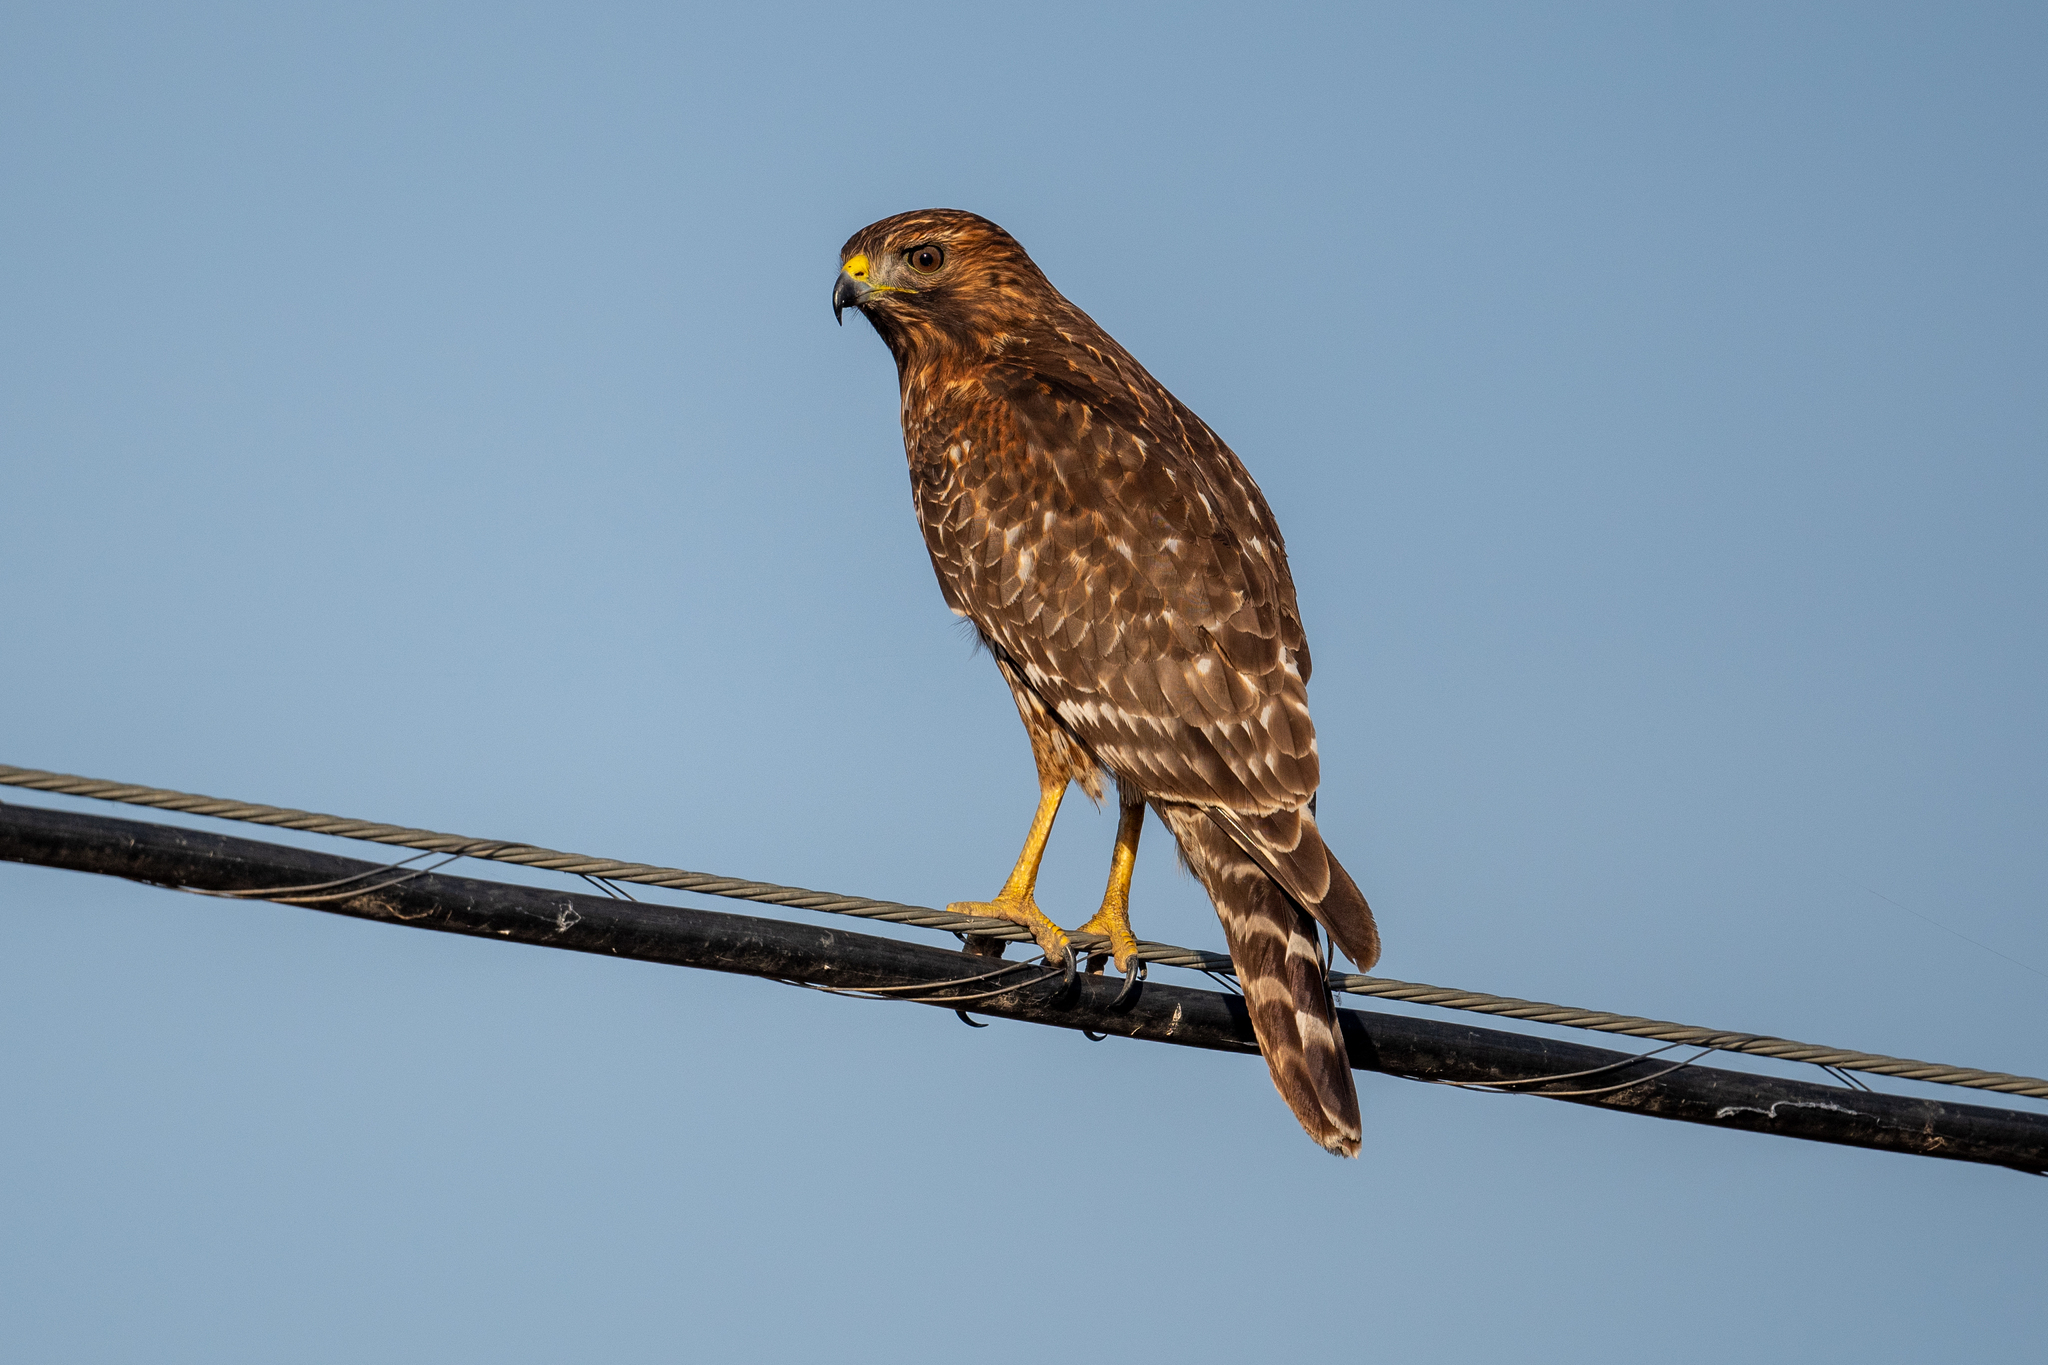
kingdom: Animalia
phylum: Chordata
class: Aves
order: Accipitriformes
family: Accipitridae
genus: Buteo
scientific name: Buteo lineatus
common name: Red-shouldered hawk
